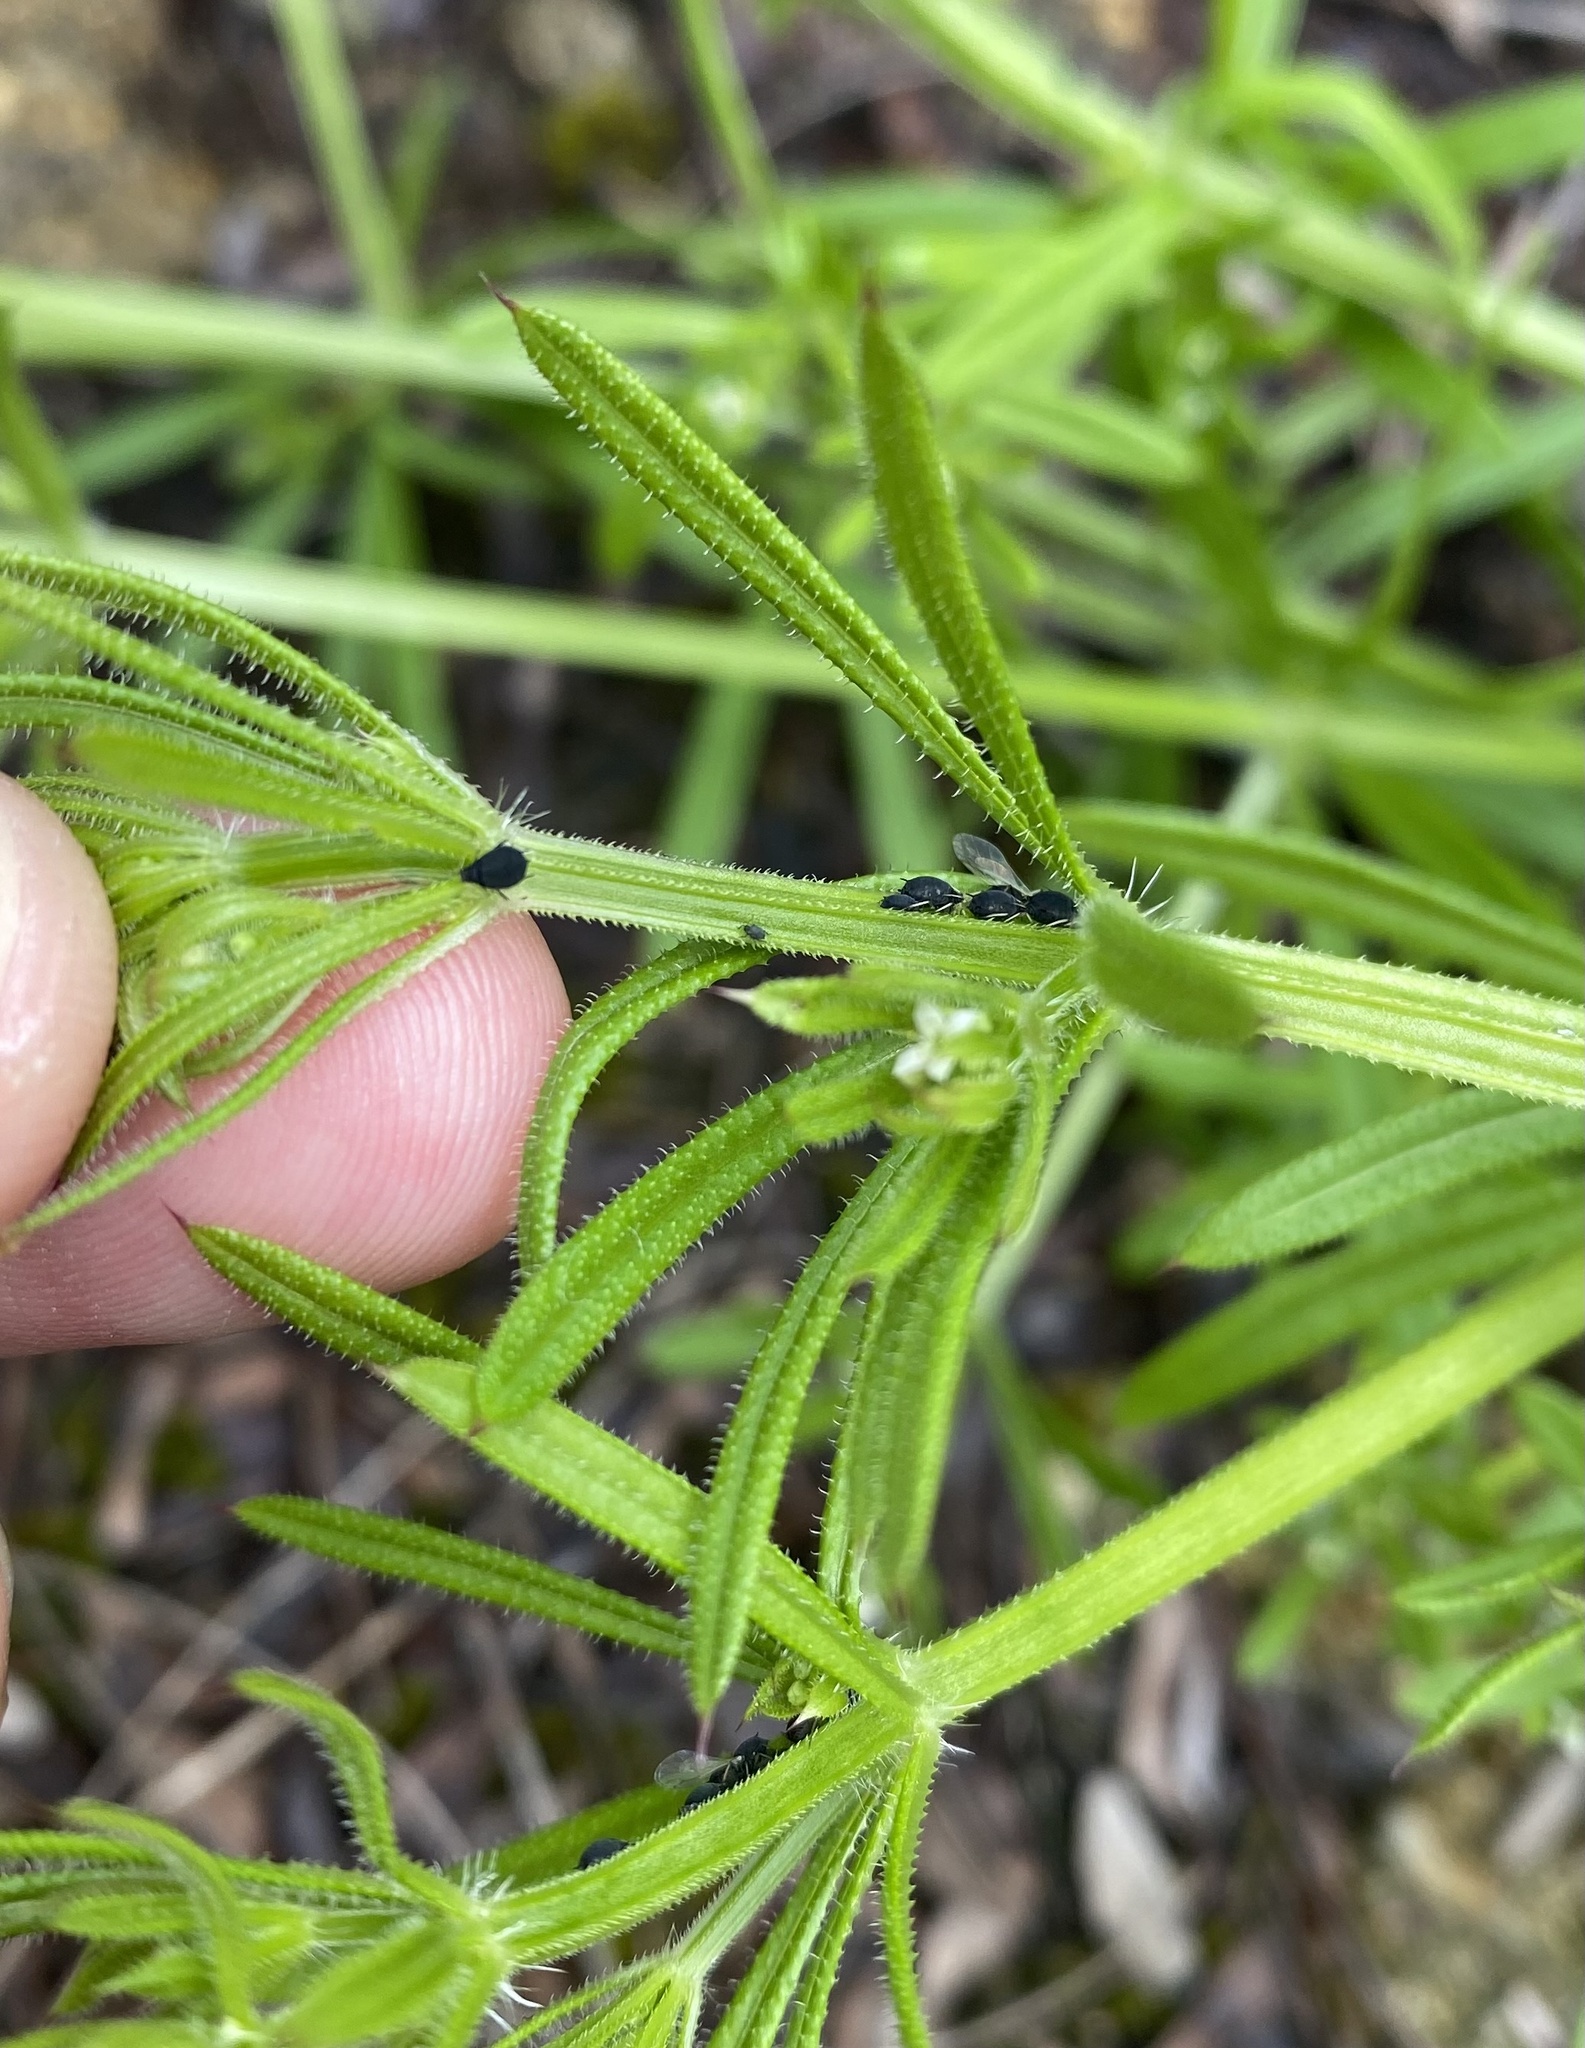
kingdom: Plantae
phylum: Tracheophyta
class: Magnoliopsida
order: Gentianales
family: Rubiaceae
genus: Galium
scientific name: Galium aparine
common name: Cleavers
